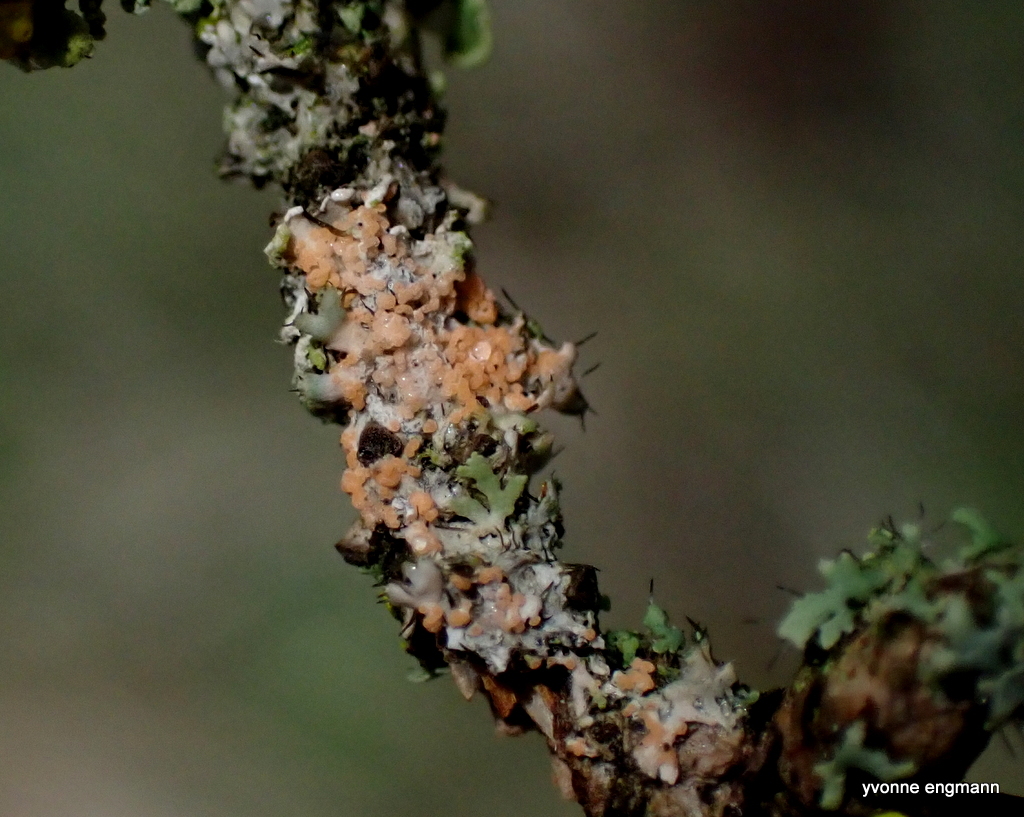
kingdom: Fungi
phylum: Basidiomycota
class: Agaricomycetes
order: Corticiales
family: Corticiaceae
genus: Erythricium
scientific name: Erythricium aurantiacum
